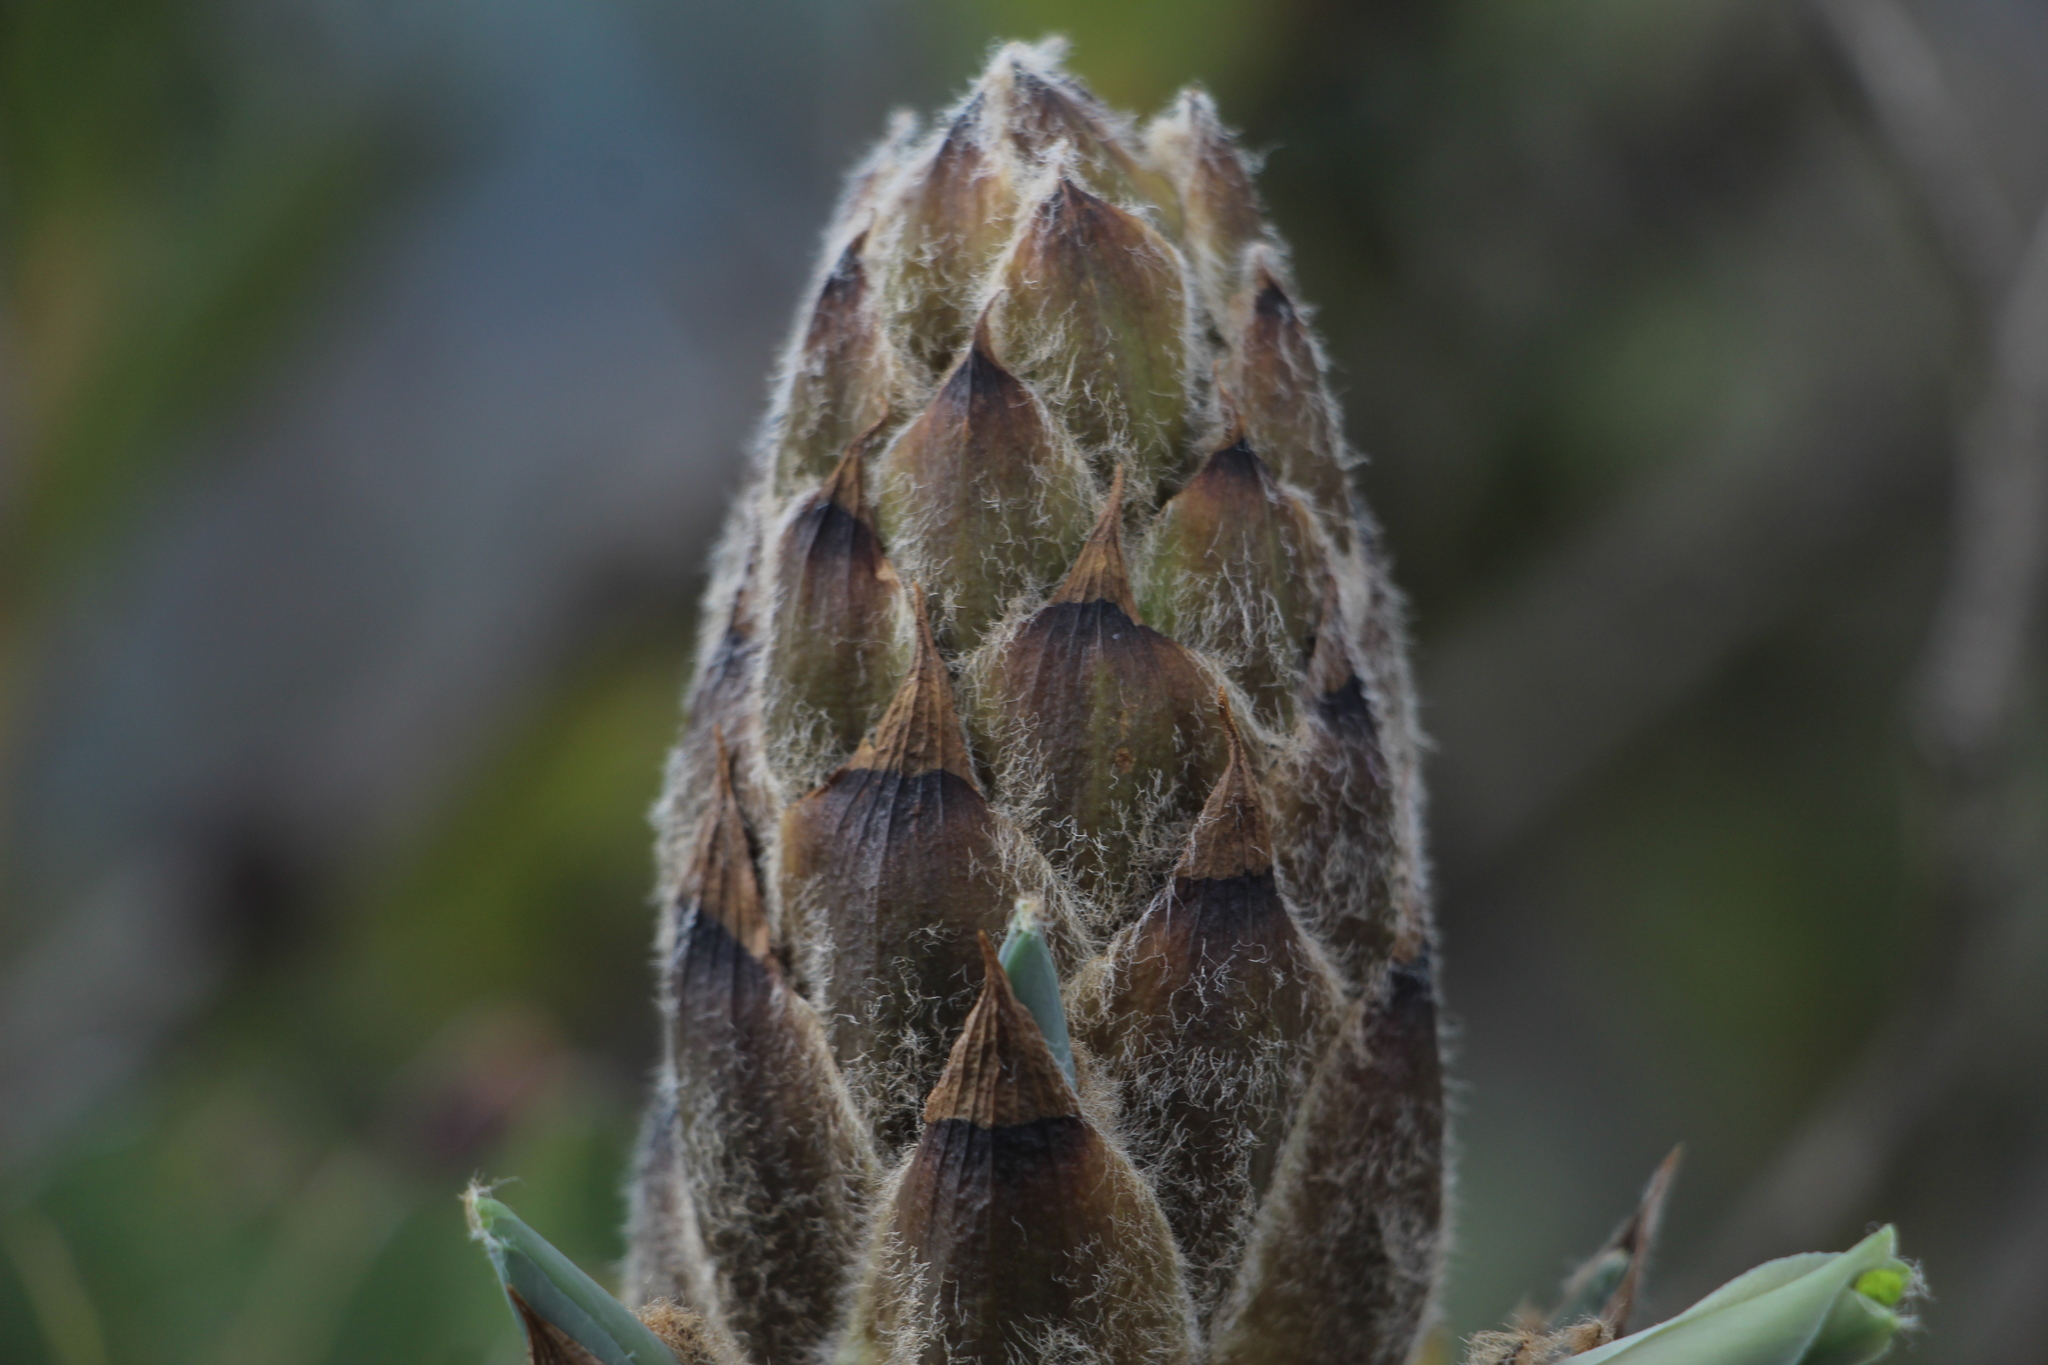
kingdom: Plantae
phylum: Tracheophyta
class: Liliopsida
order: Poales
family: Bromeliaceae
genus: Puya
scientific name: Puya nitida
